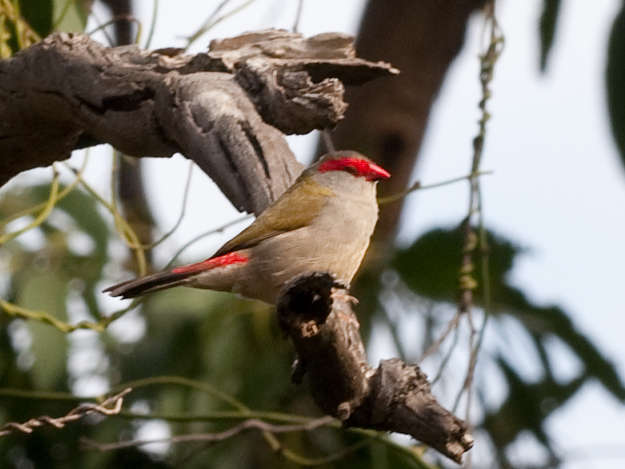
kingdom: Animalia
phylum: Chordata
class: Aves
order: Passeriformes
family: Estrildidae
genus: Neochmia
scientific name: Neochmia temporalis
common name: Red-browed finch
